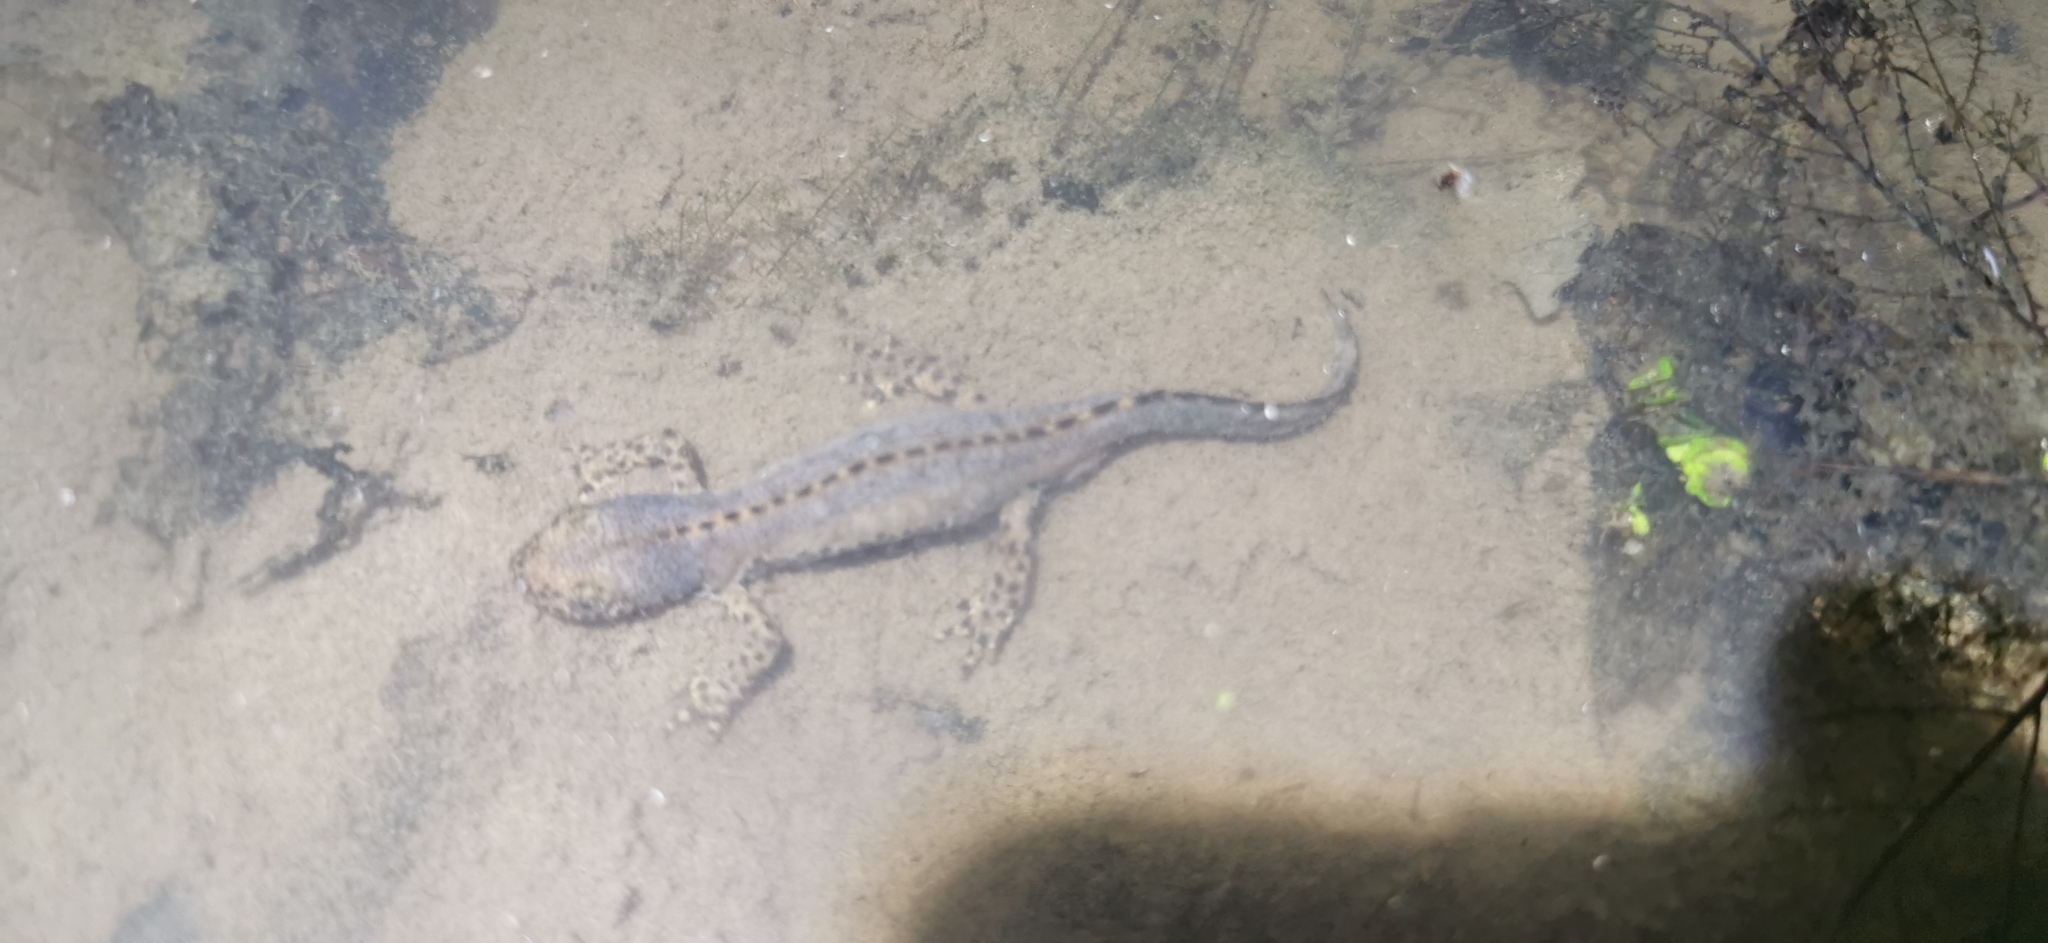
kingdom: Animalia
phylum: Chordata
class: Amphibia
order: Caudata
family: Salamandridae
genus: Ichthyosaura
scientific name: Ichthyosaura alpestris
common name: Alpine newt
